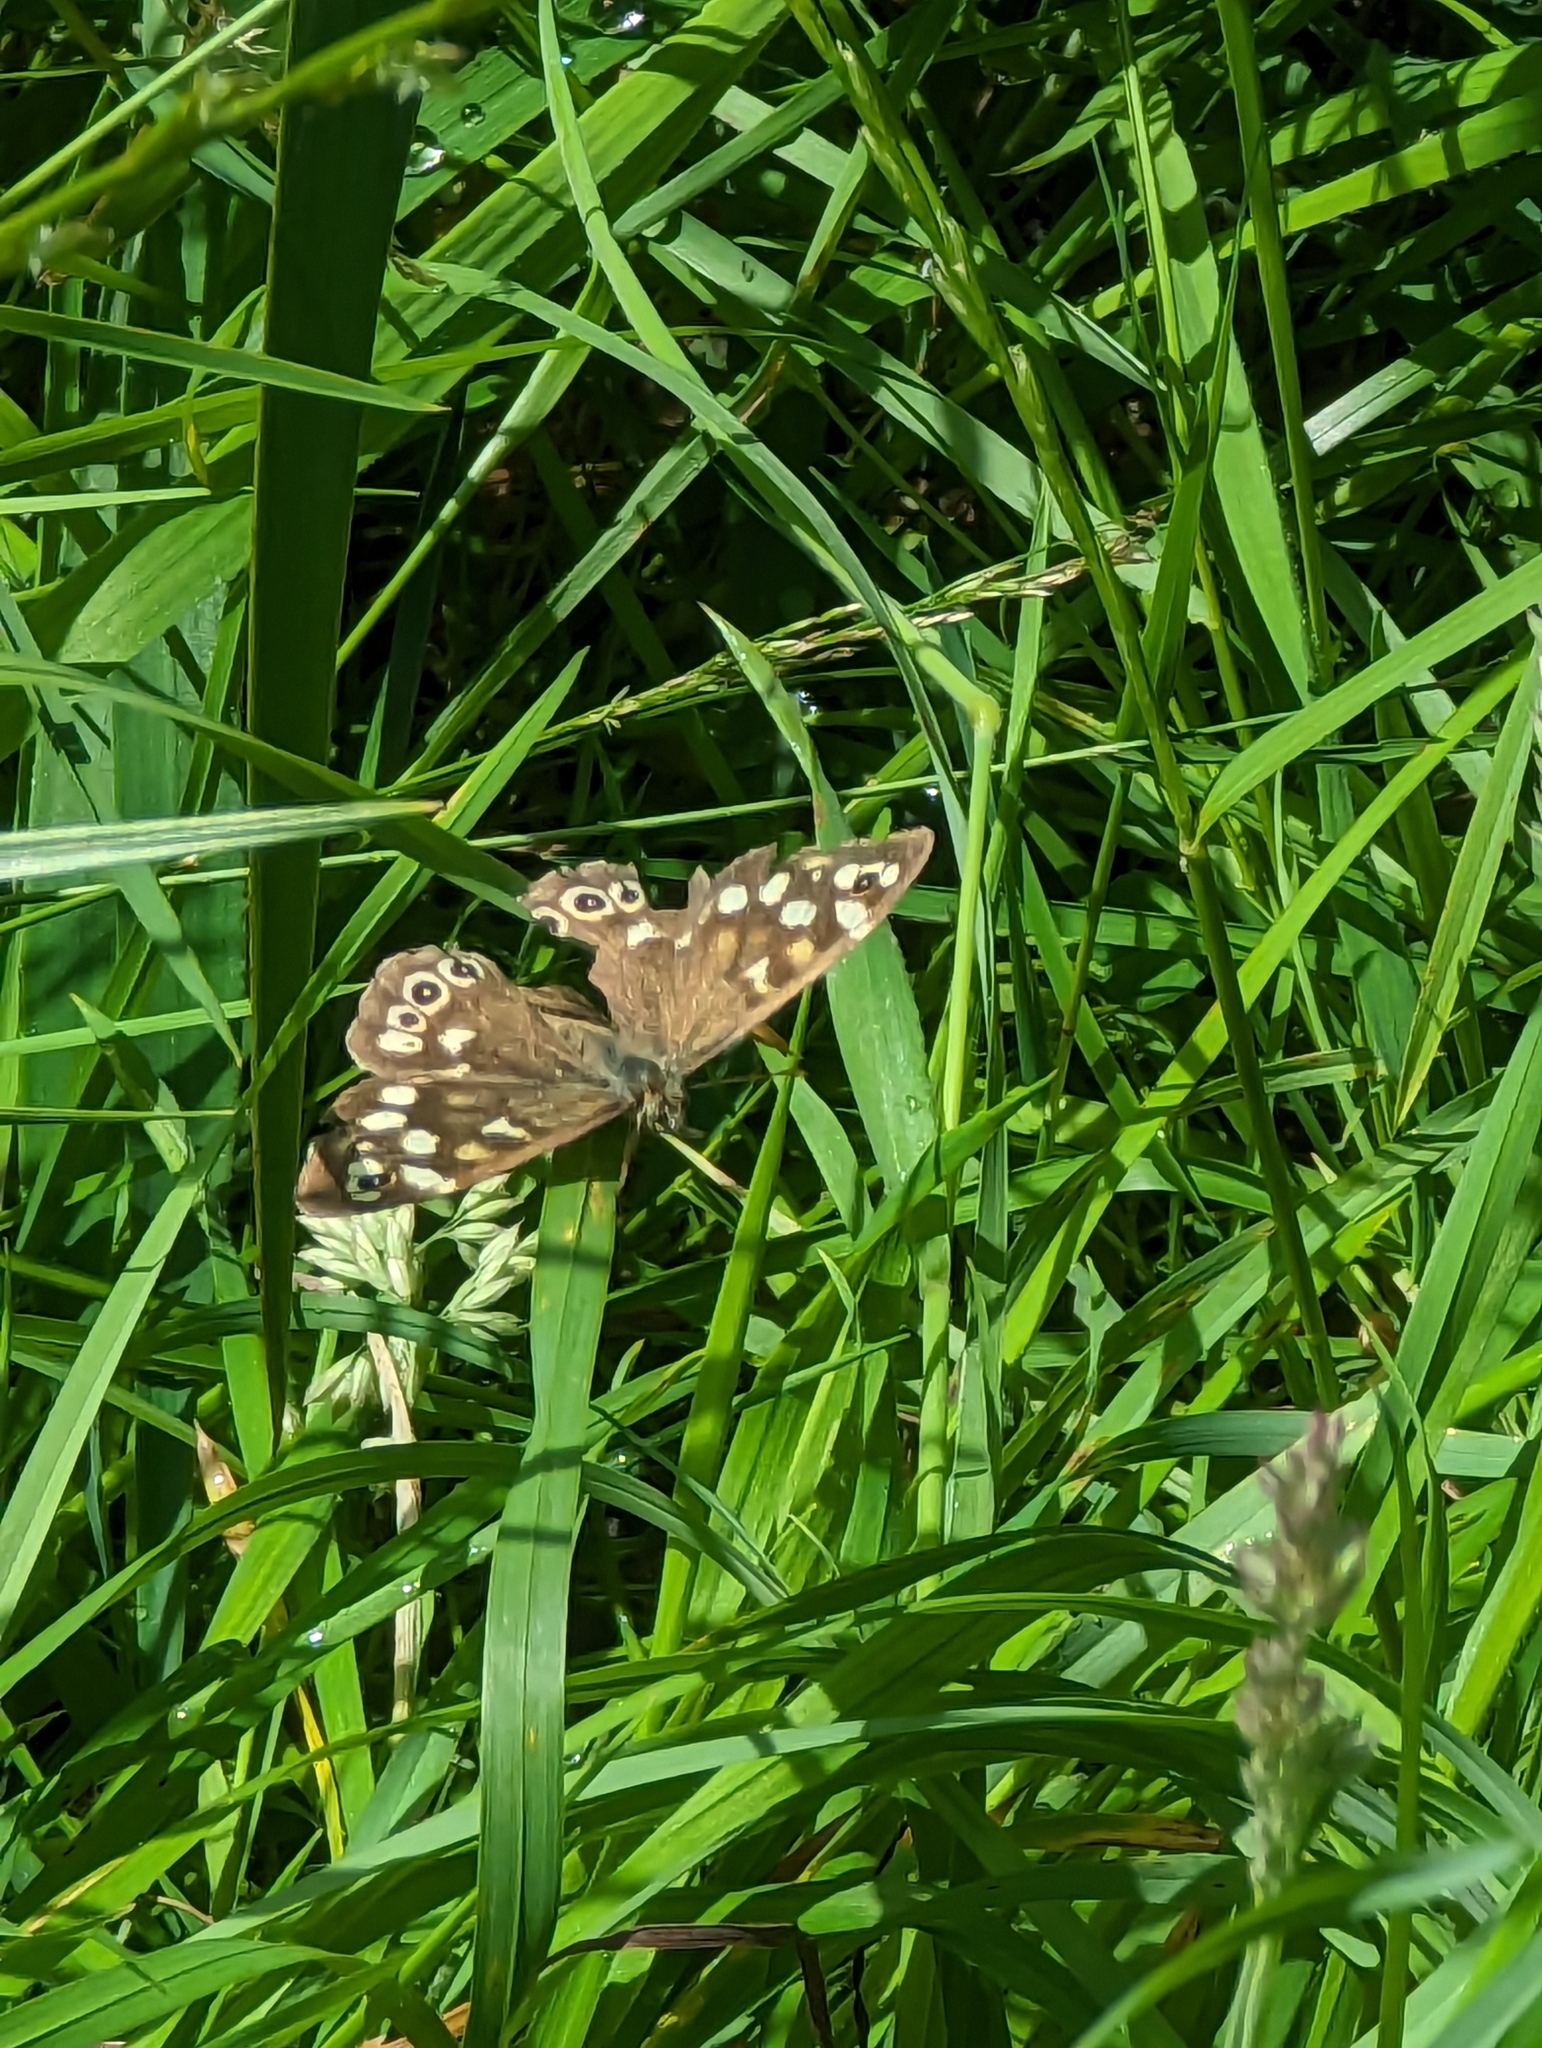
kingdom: Animalia
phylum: Arthropoda
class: Insecta
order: Lepidoptera
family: Nymphalidae
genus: Pararge
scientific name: Pararge aegeria
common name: Speckled wood
